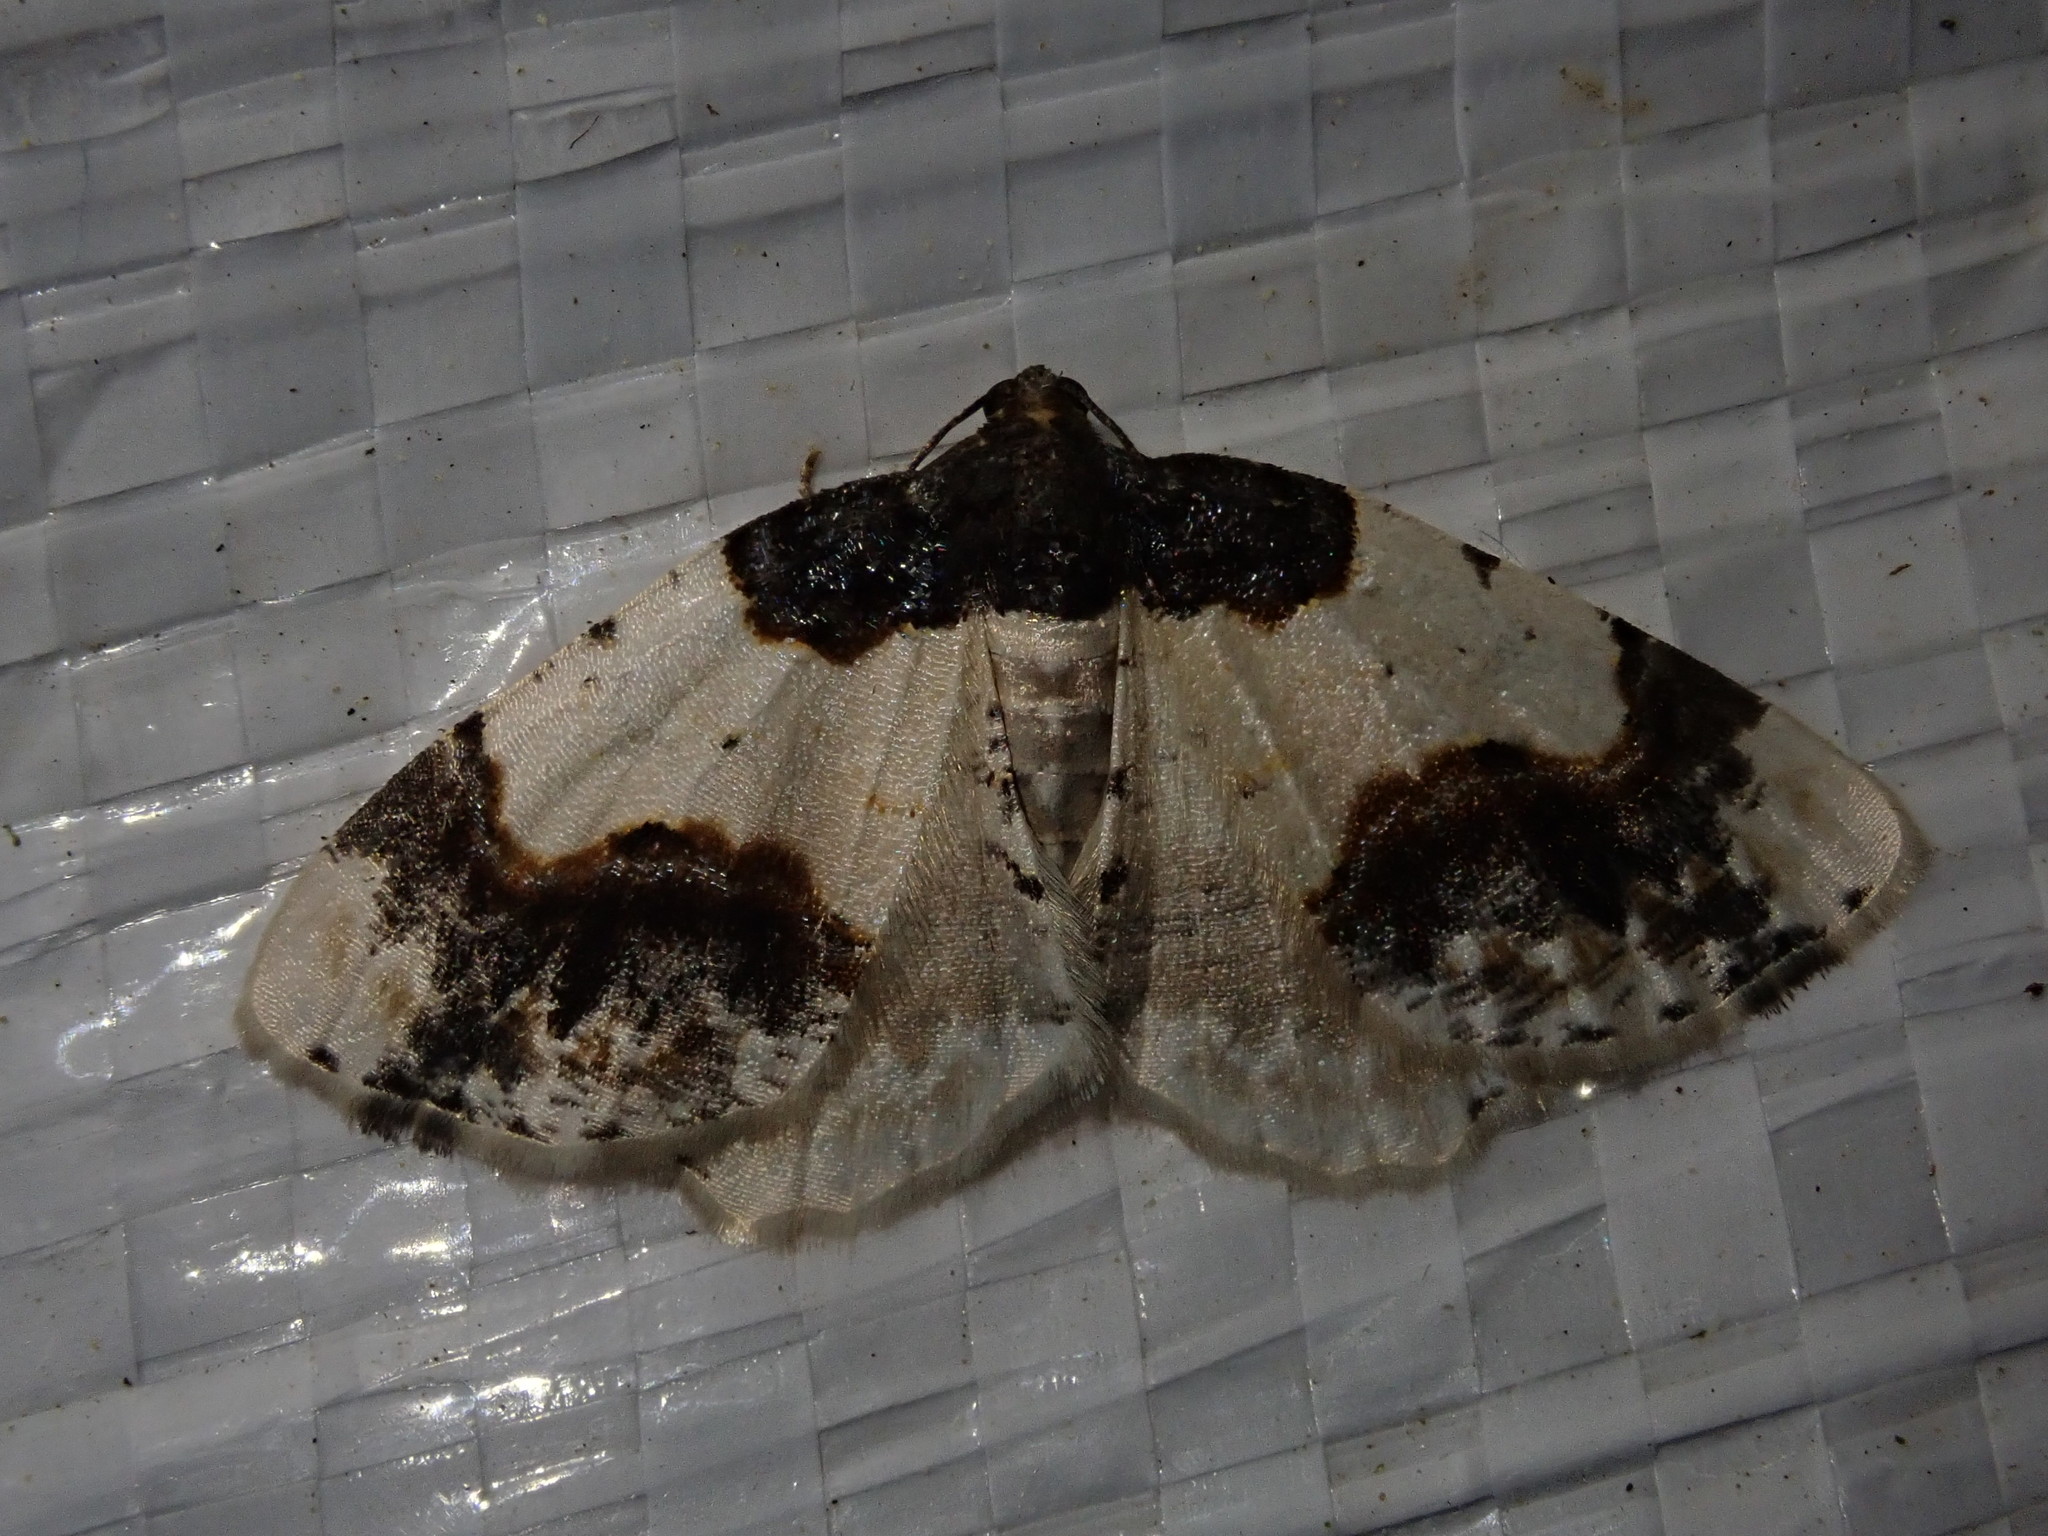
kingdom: Animalia
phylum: Arthropoda
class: Insecta
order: Lepidoptera
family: Geometridae
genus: Ligdia
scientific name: Ligdia adustata
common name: Scorched carpet
